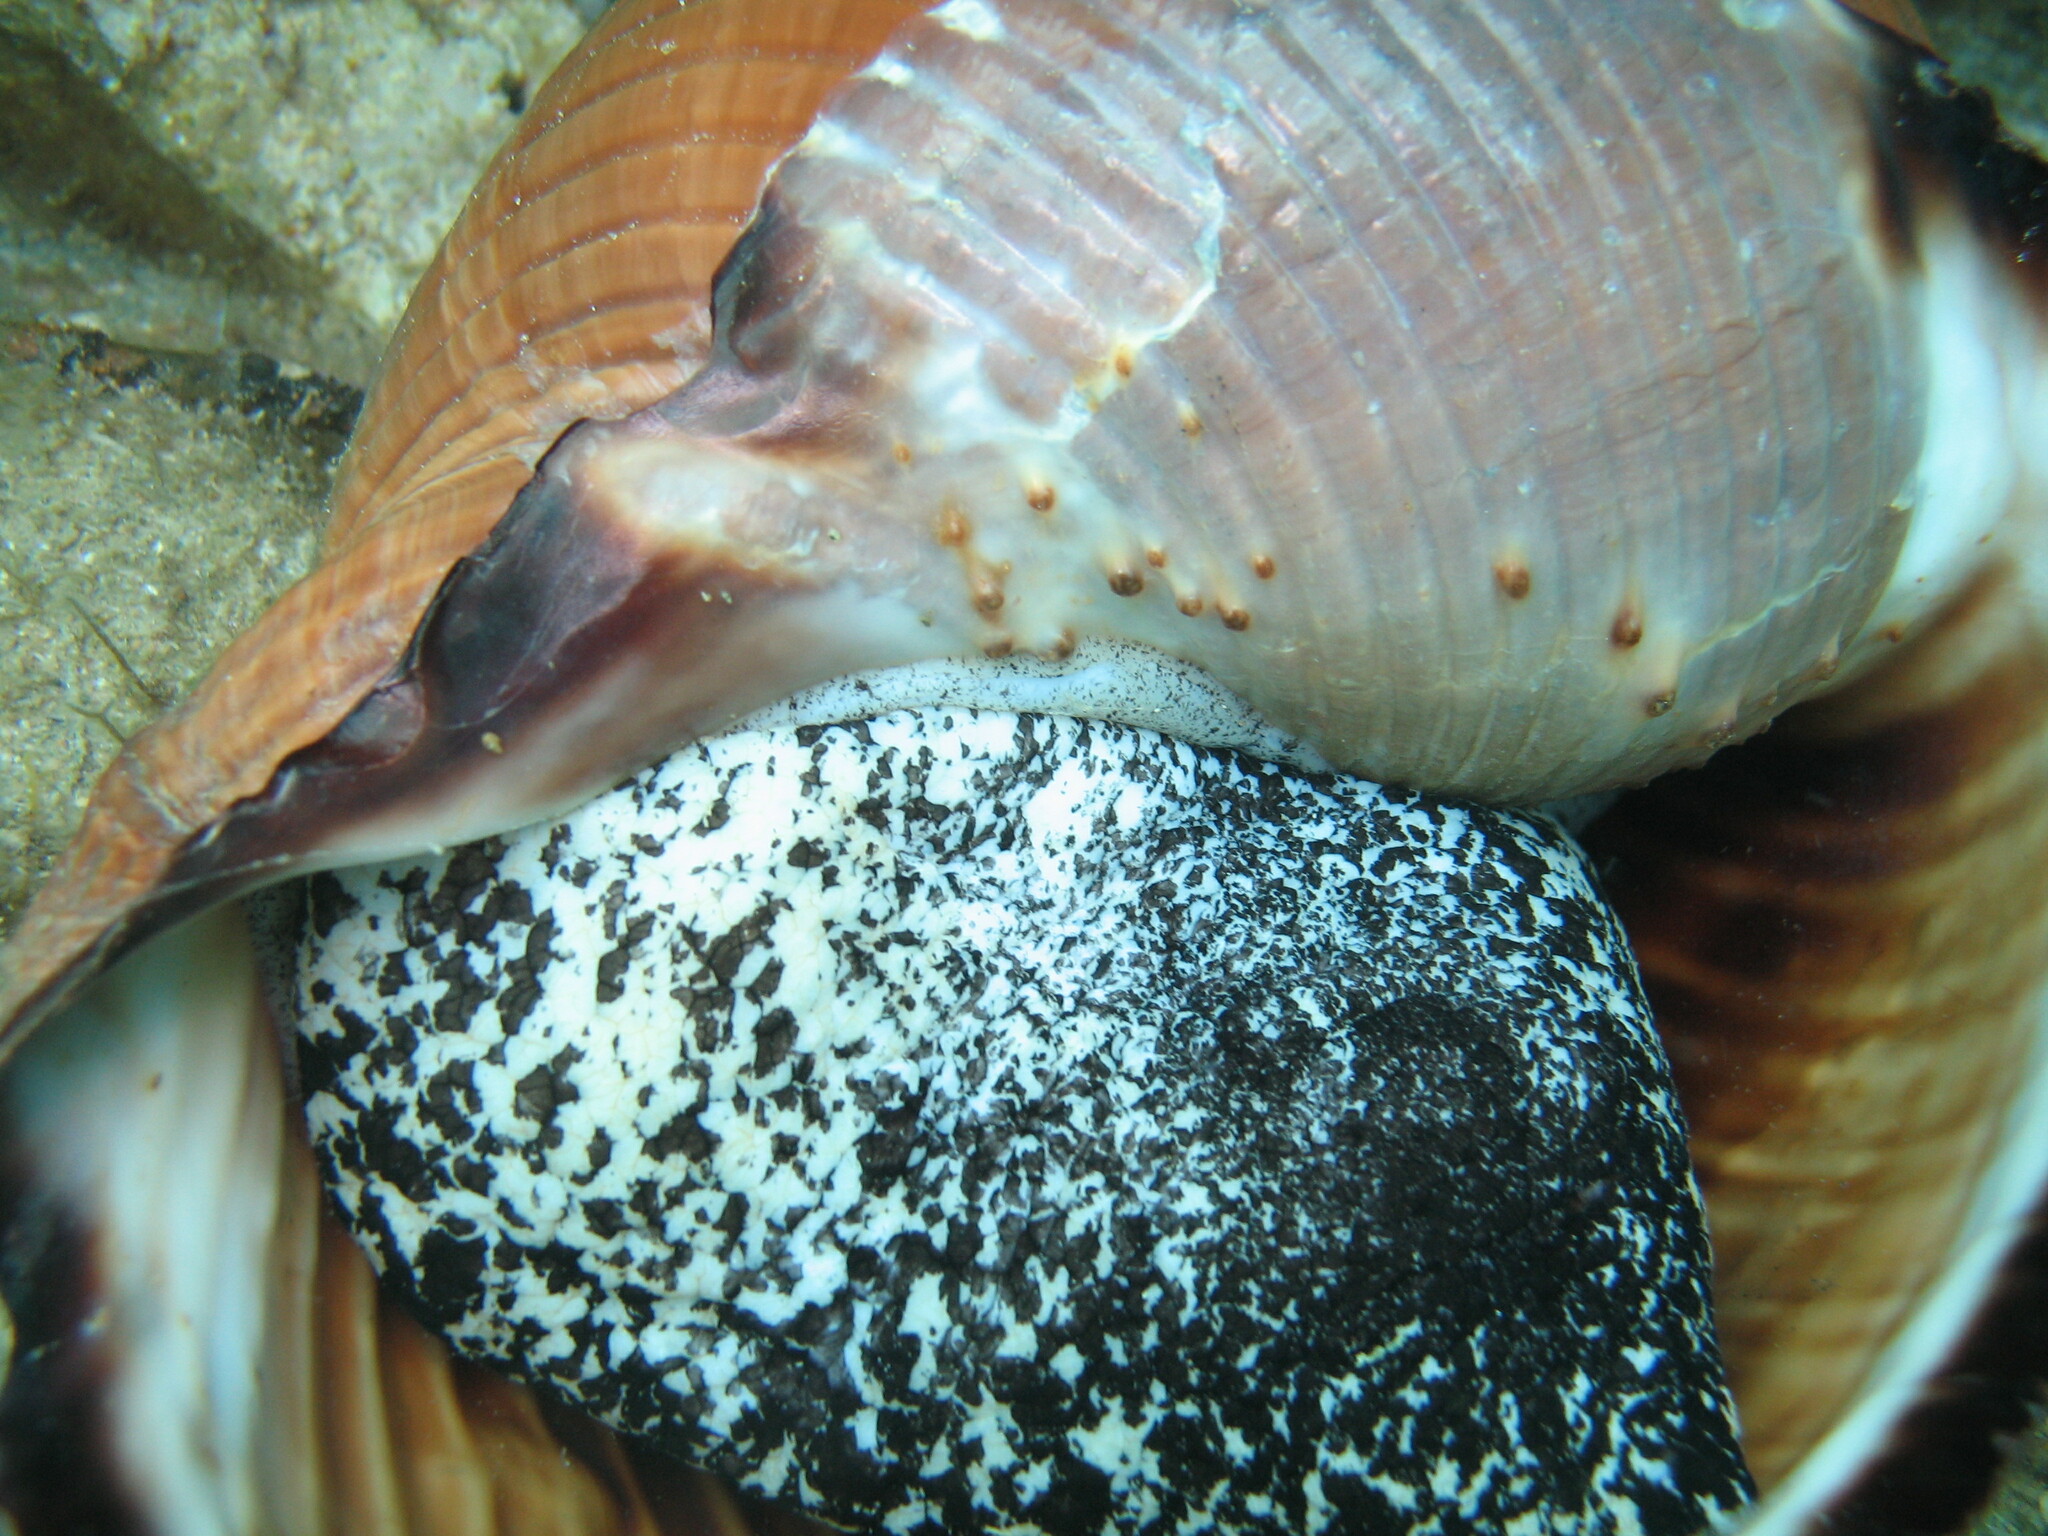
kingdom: Animalia
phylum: Mollusca
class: Gastropoda
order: Littorinimorpha
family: Tonnidae
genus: Tonna
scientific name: Tonna galea
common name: Giant tun
